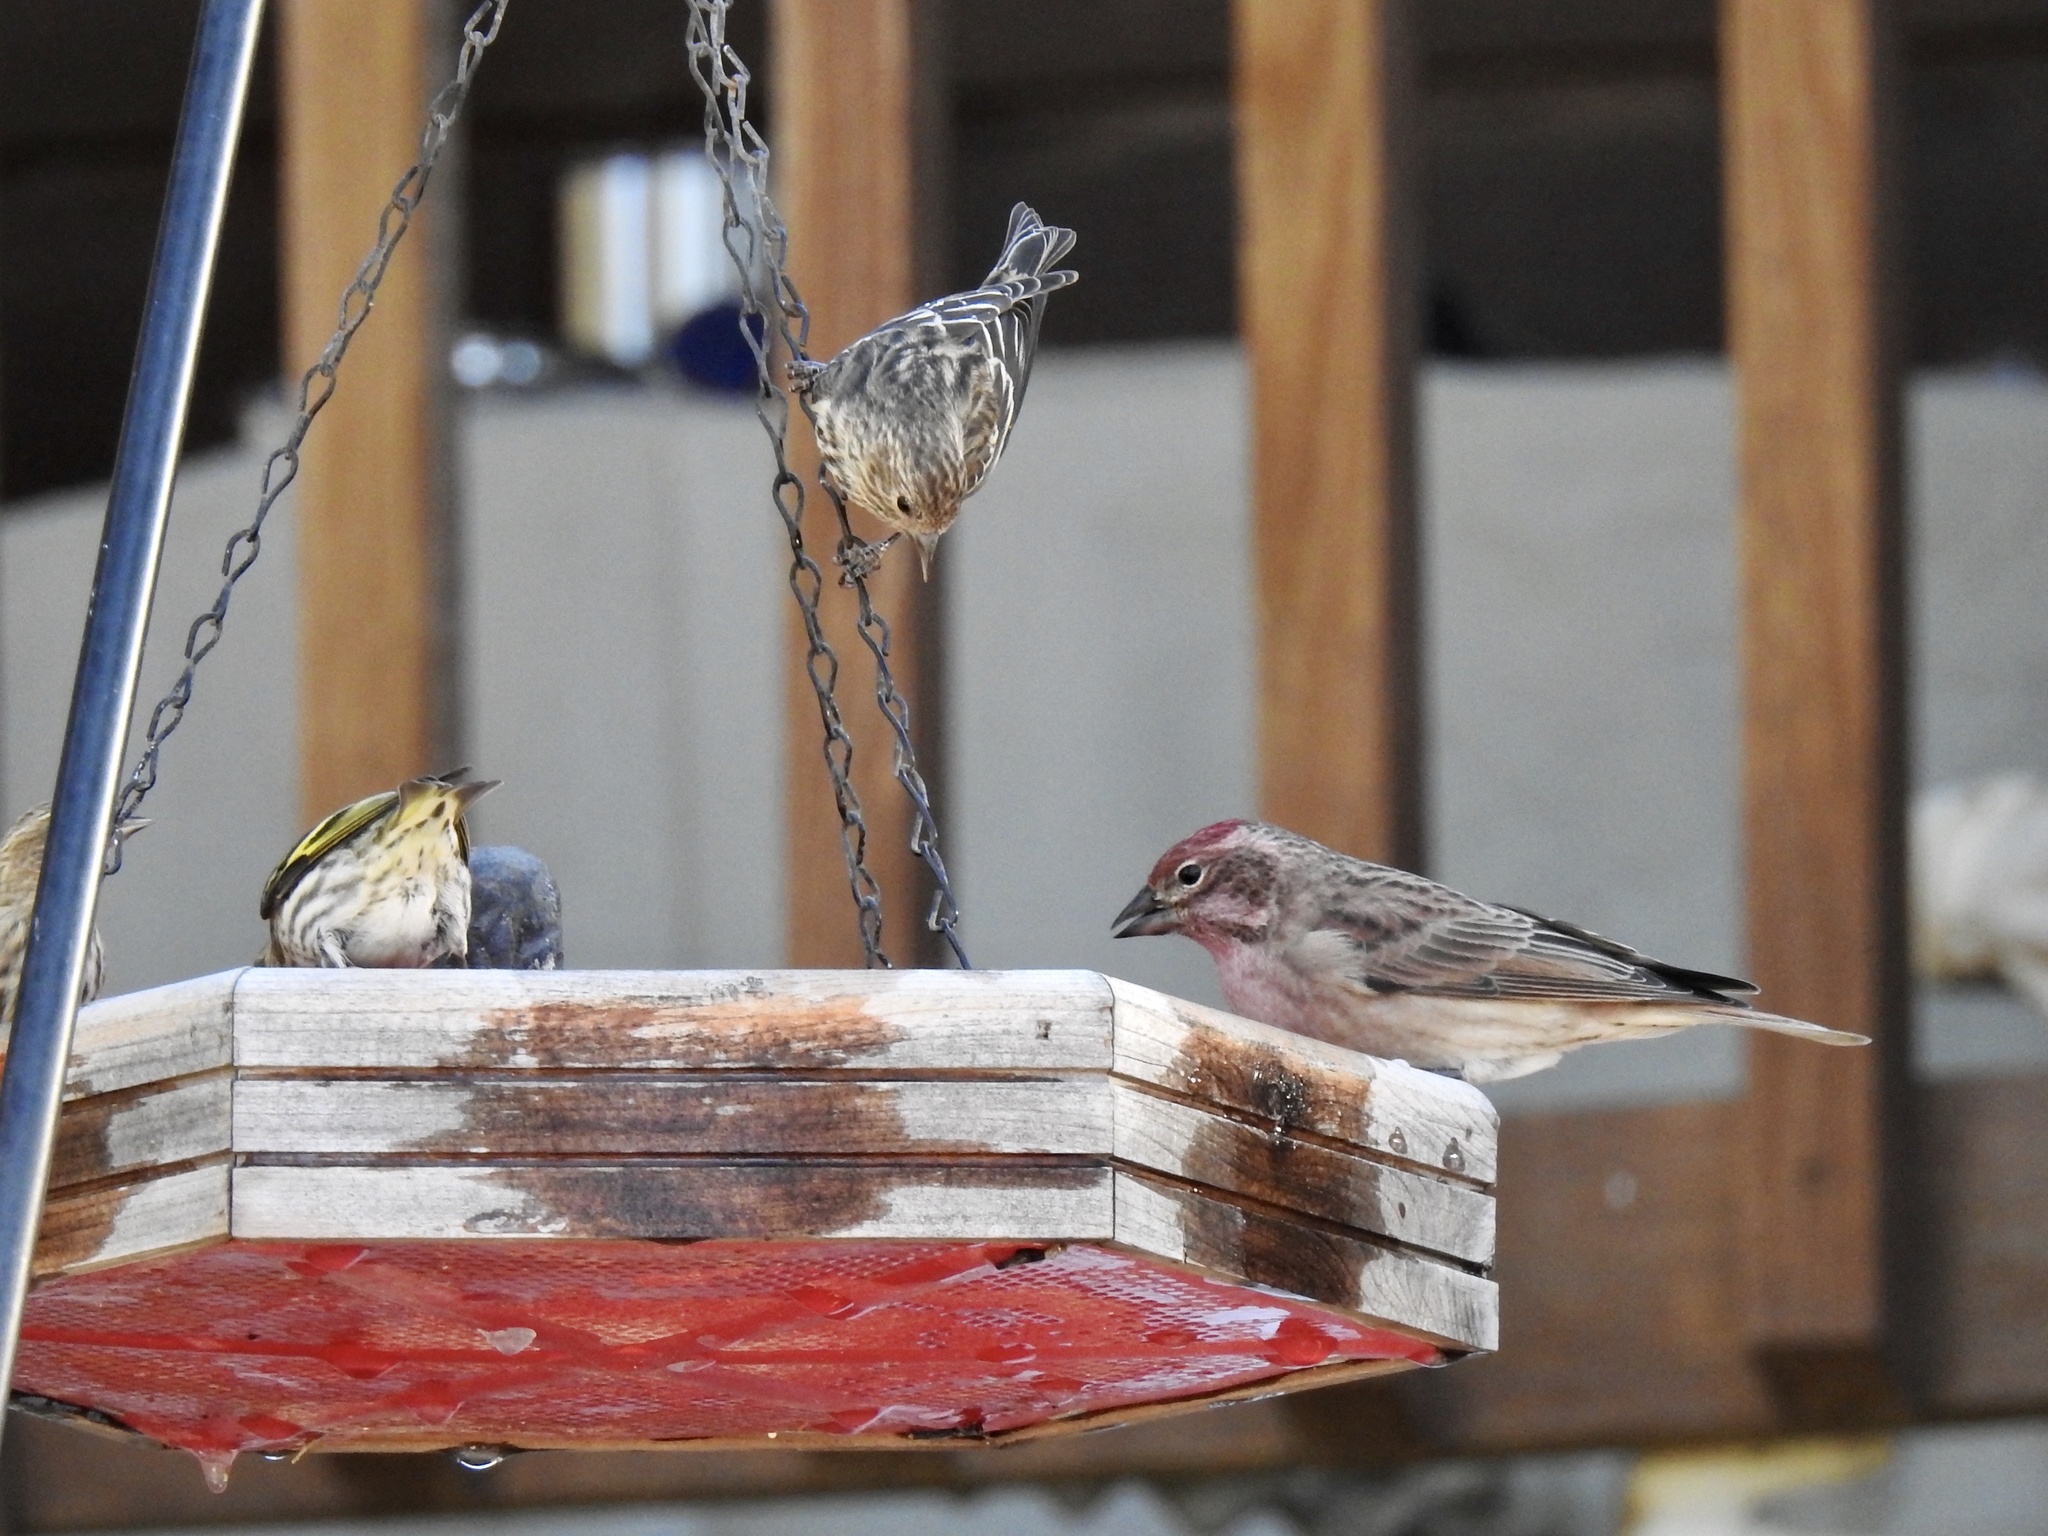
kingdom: Animalia
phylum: Chordata
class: Aves
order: Passeriformes
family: Fringillidae
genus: Spinus
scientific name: Spinus pinus
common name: Pine siskin
